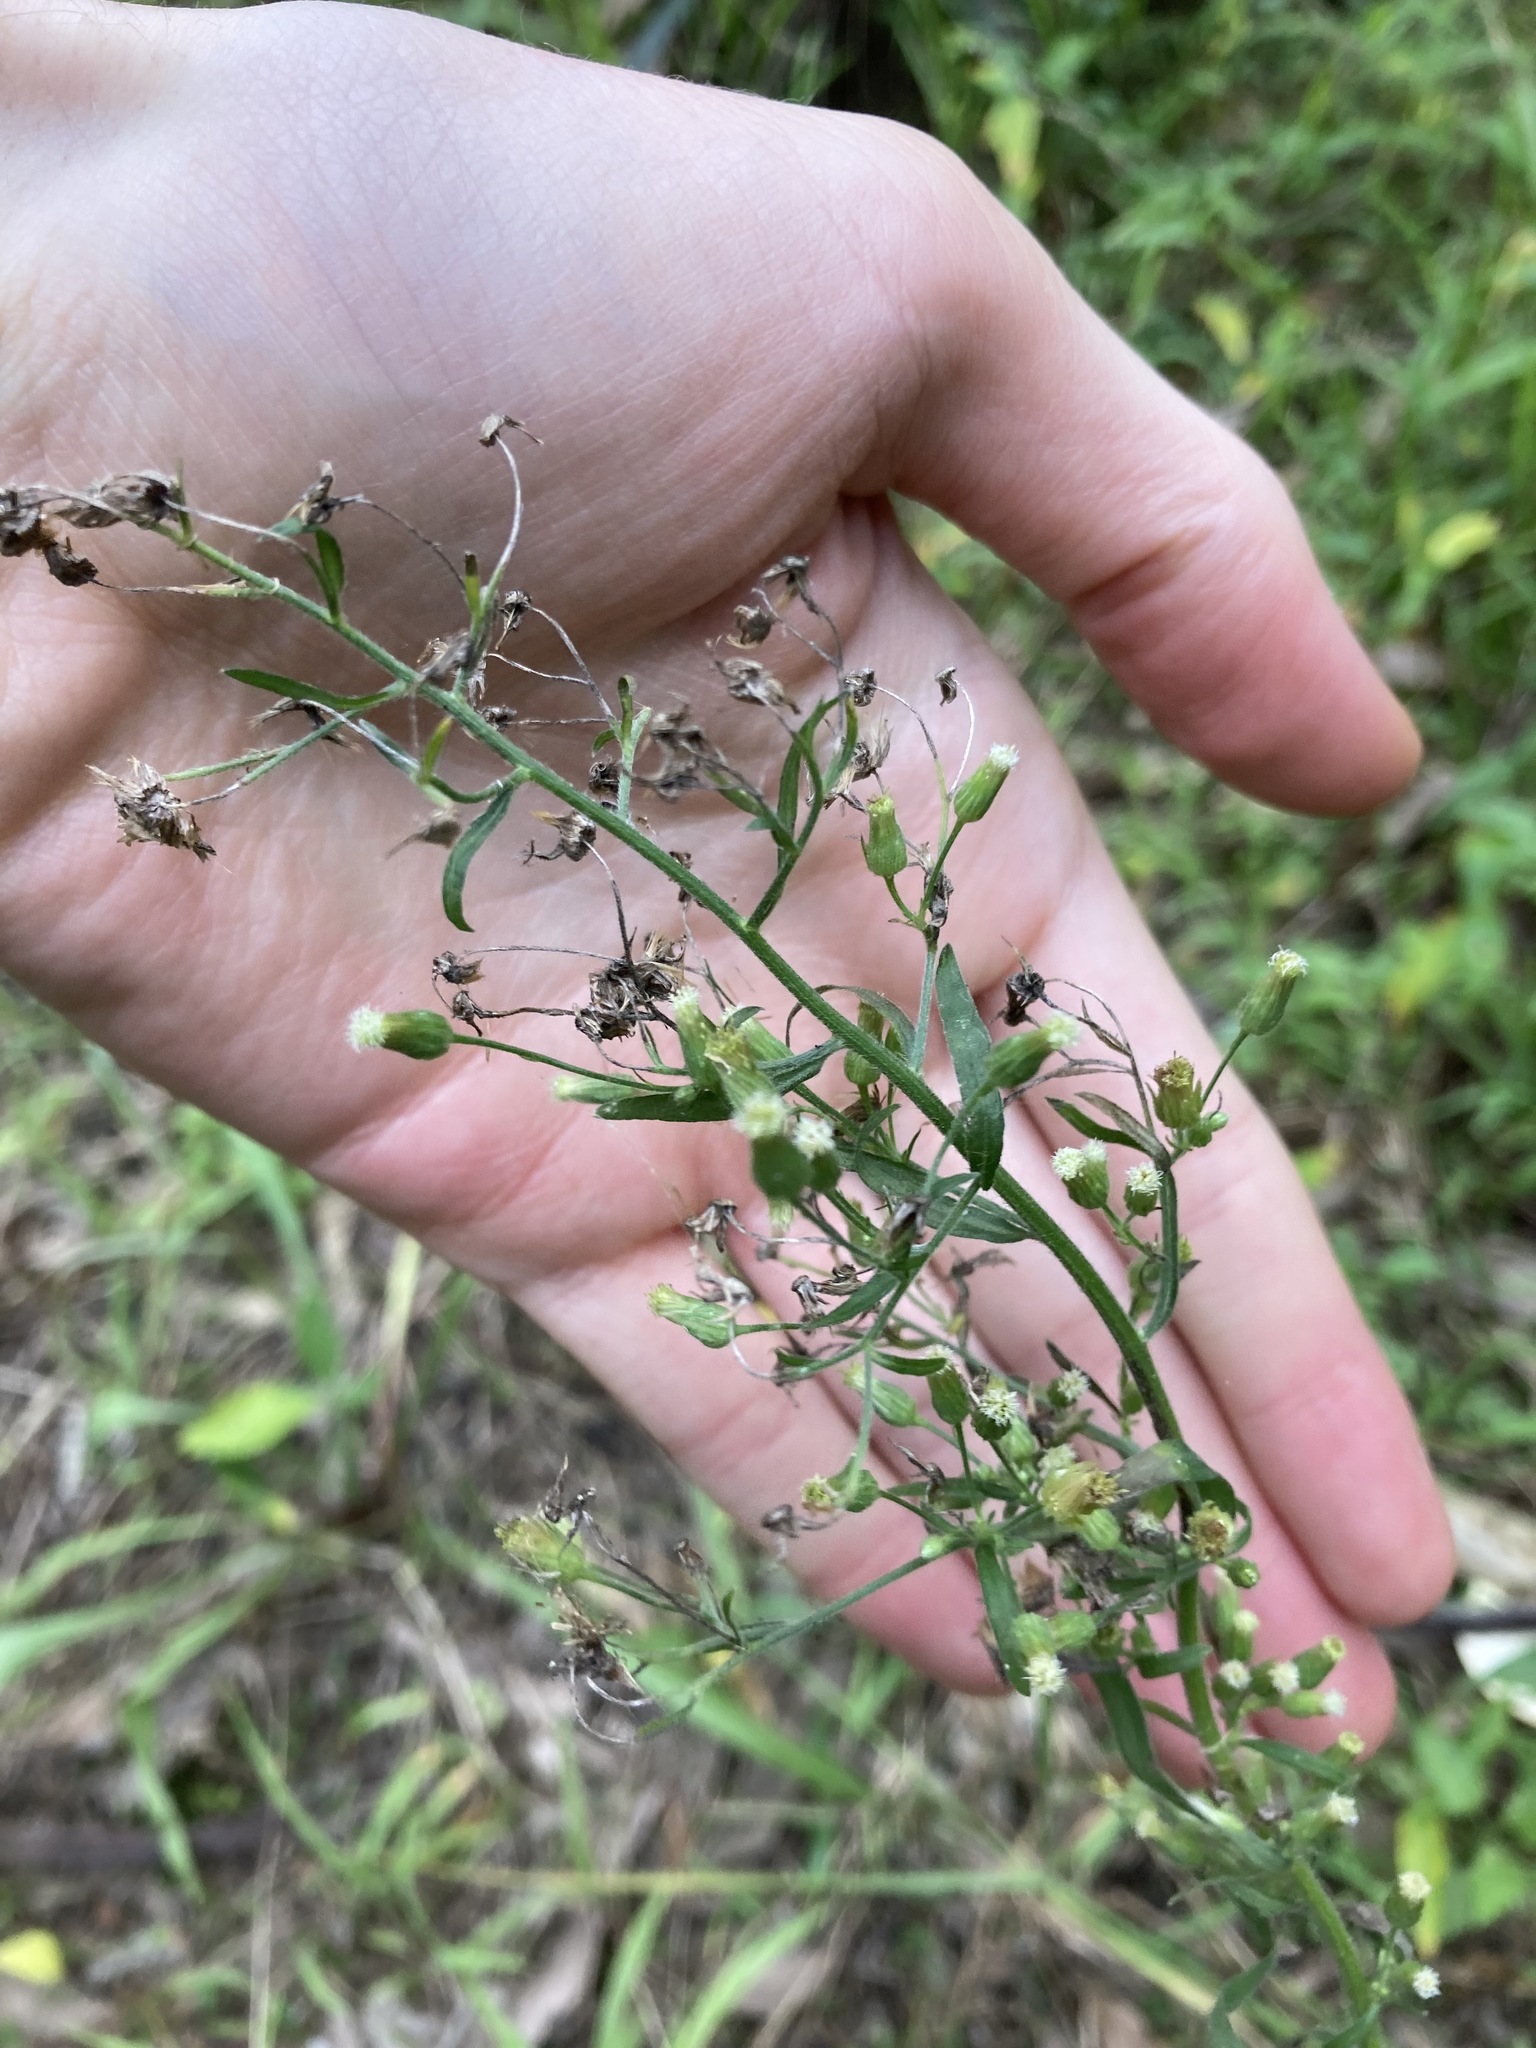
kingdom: Plantae
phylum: Tracheophyta
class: Magnoliopsida
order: Asterales
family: Asteraceae
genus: Erigeron
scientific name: Erigeron sumatrensis
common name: Daisy
